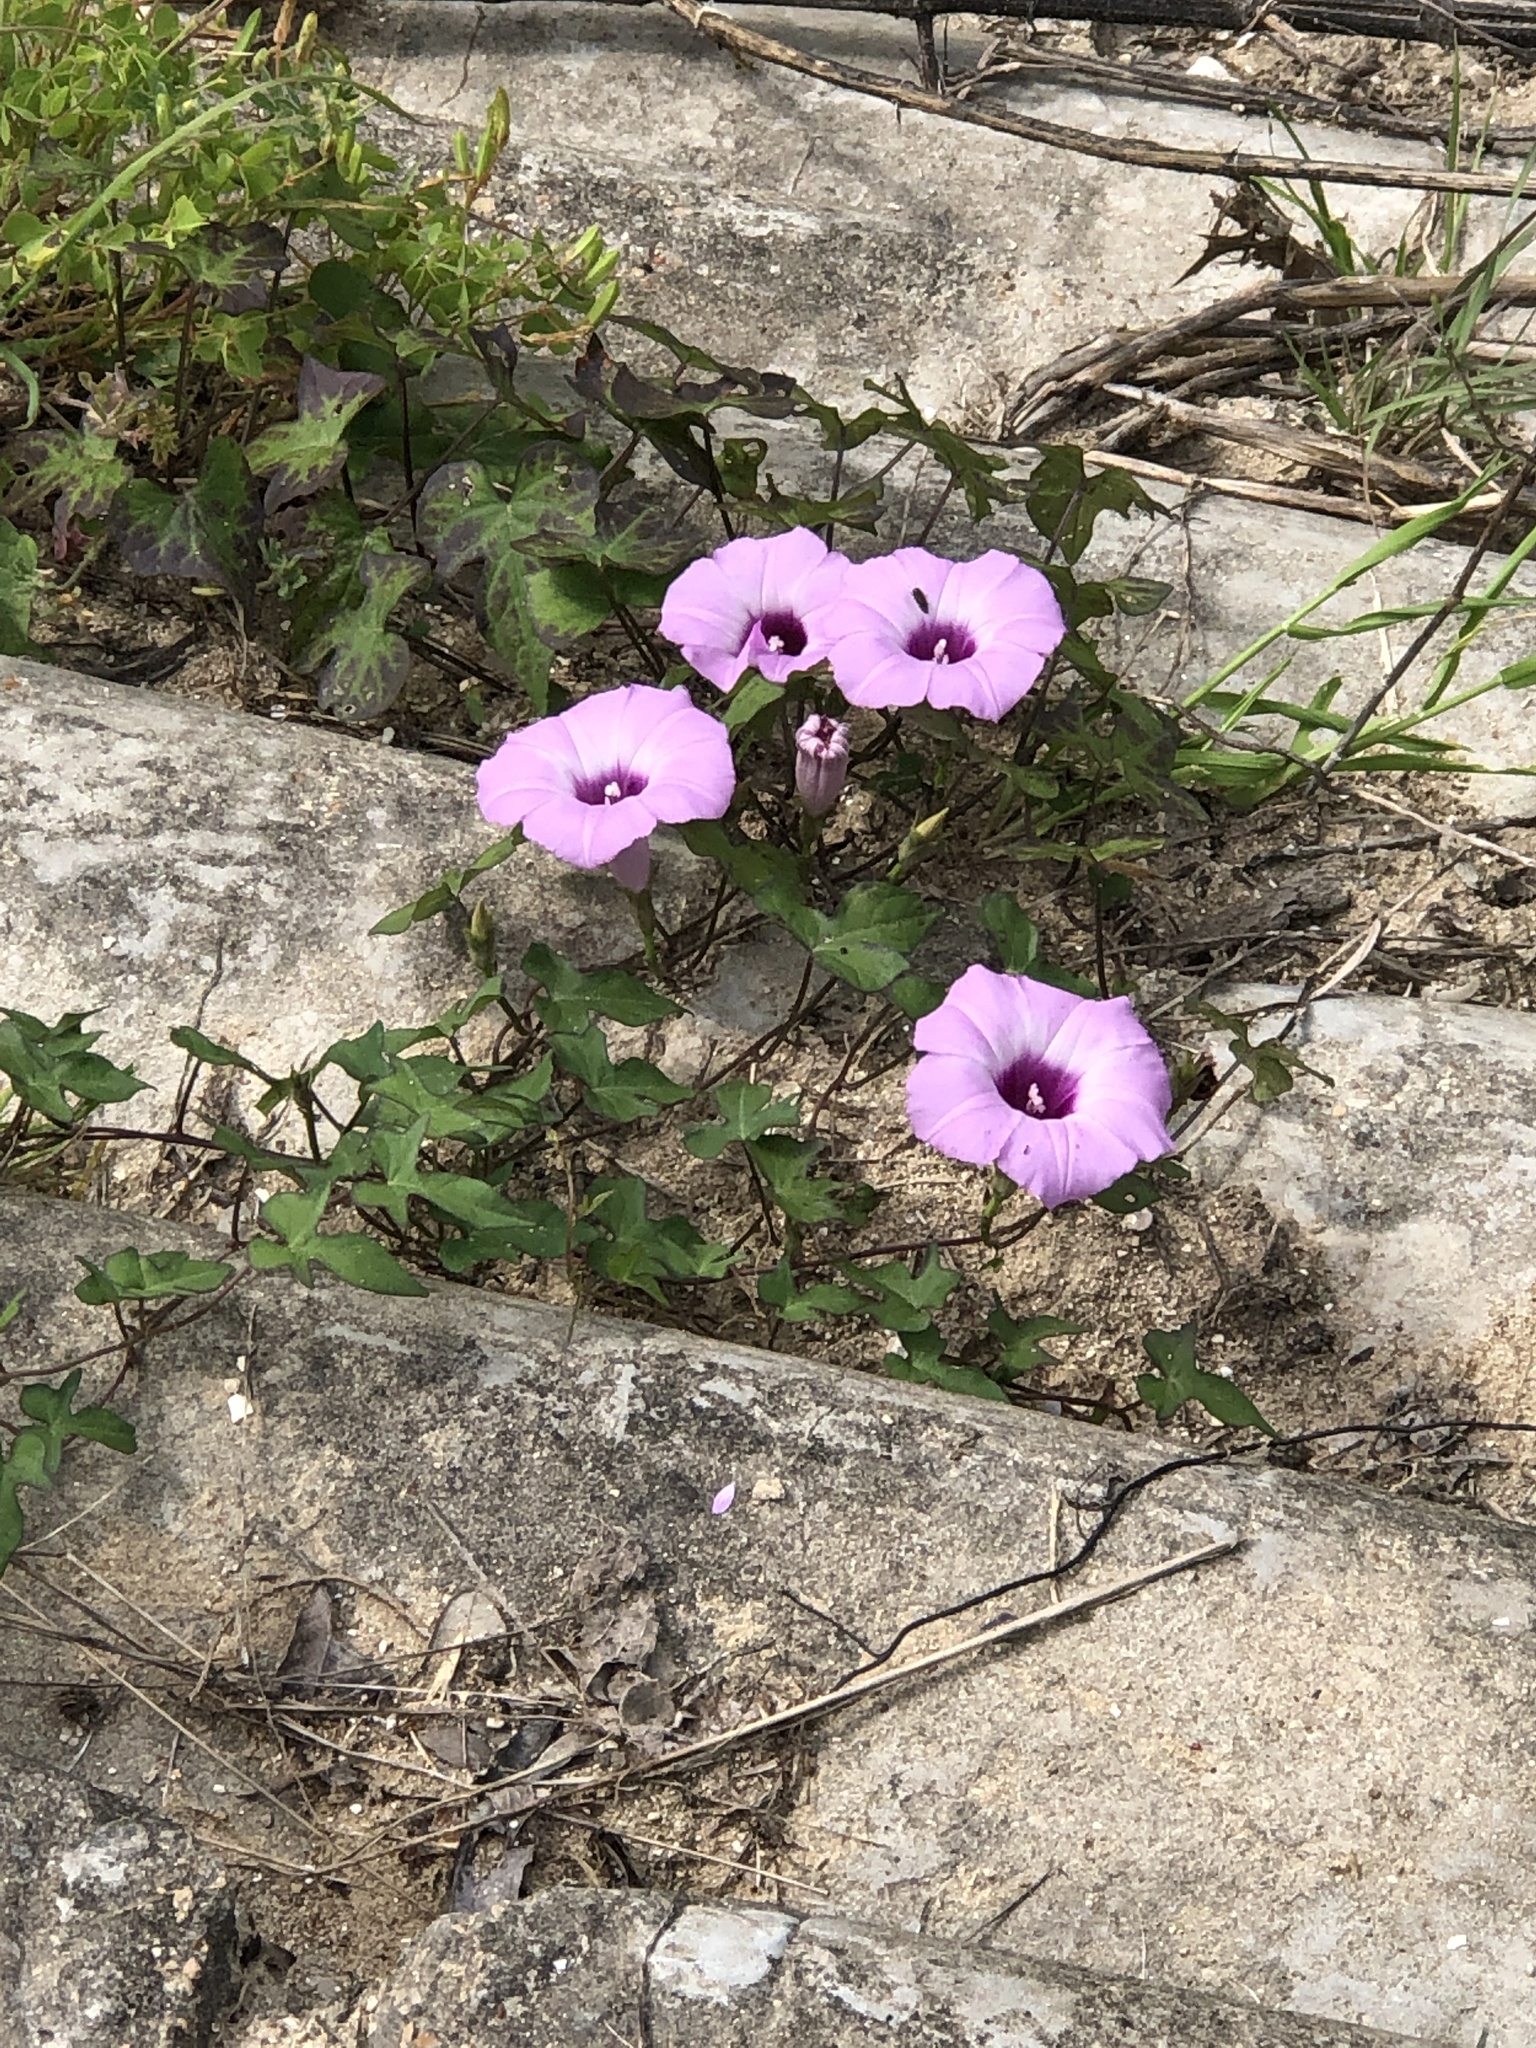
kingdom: Plantae
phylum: Tracheophyta
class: Magnoliopsida
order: Solanales
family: Convolvulaceae
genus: Ipomoea
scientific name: Ipomoea cordatotriloba
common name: Cotton morning glory
